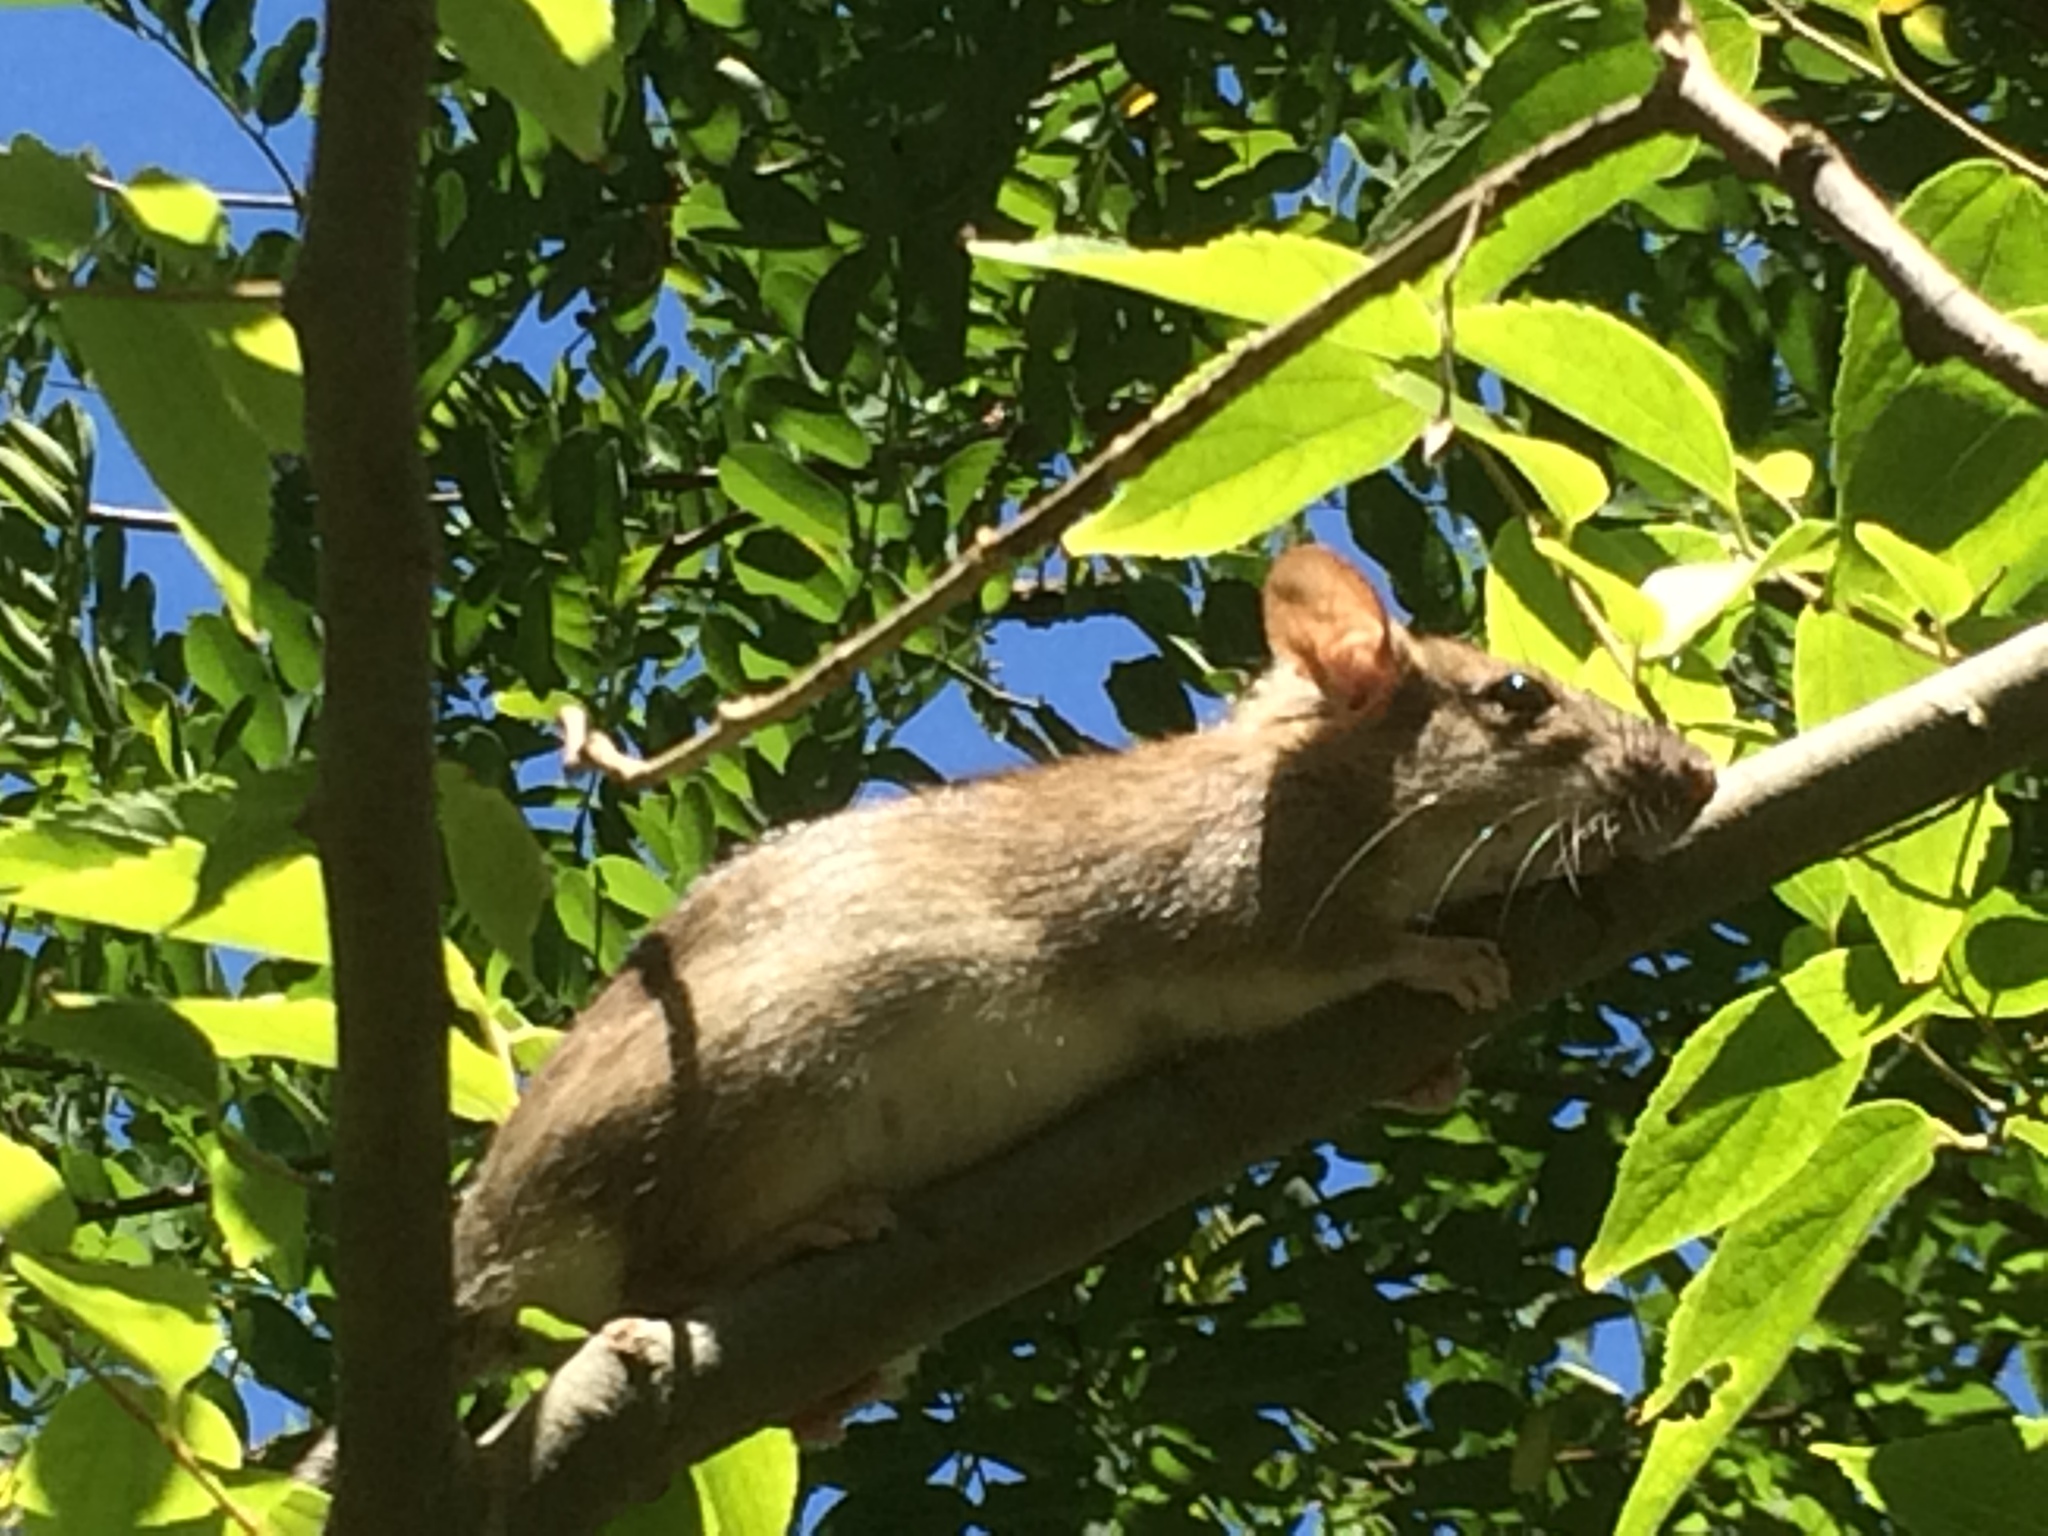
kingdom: Animalia
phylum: Chordata
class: Mammalia
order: Rodentia
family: Muridae
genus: Rattus
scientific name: Rattus rattus
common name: Black rat
